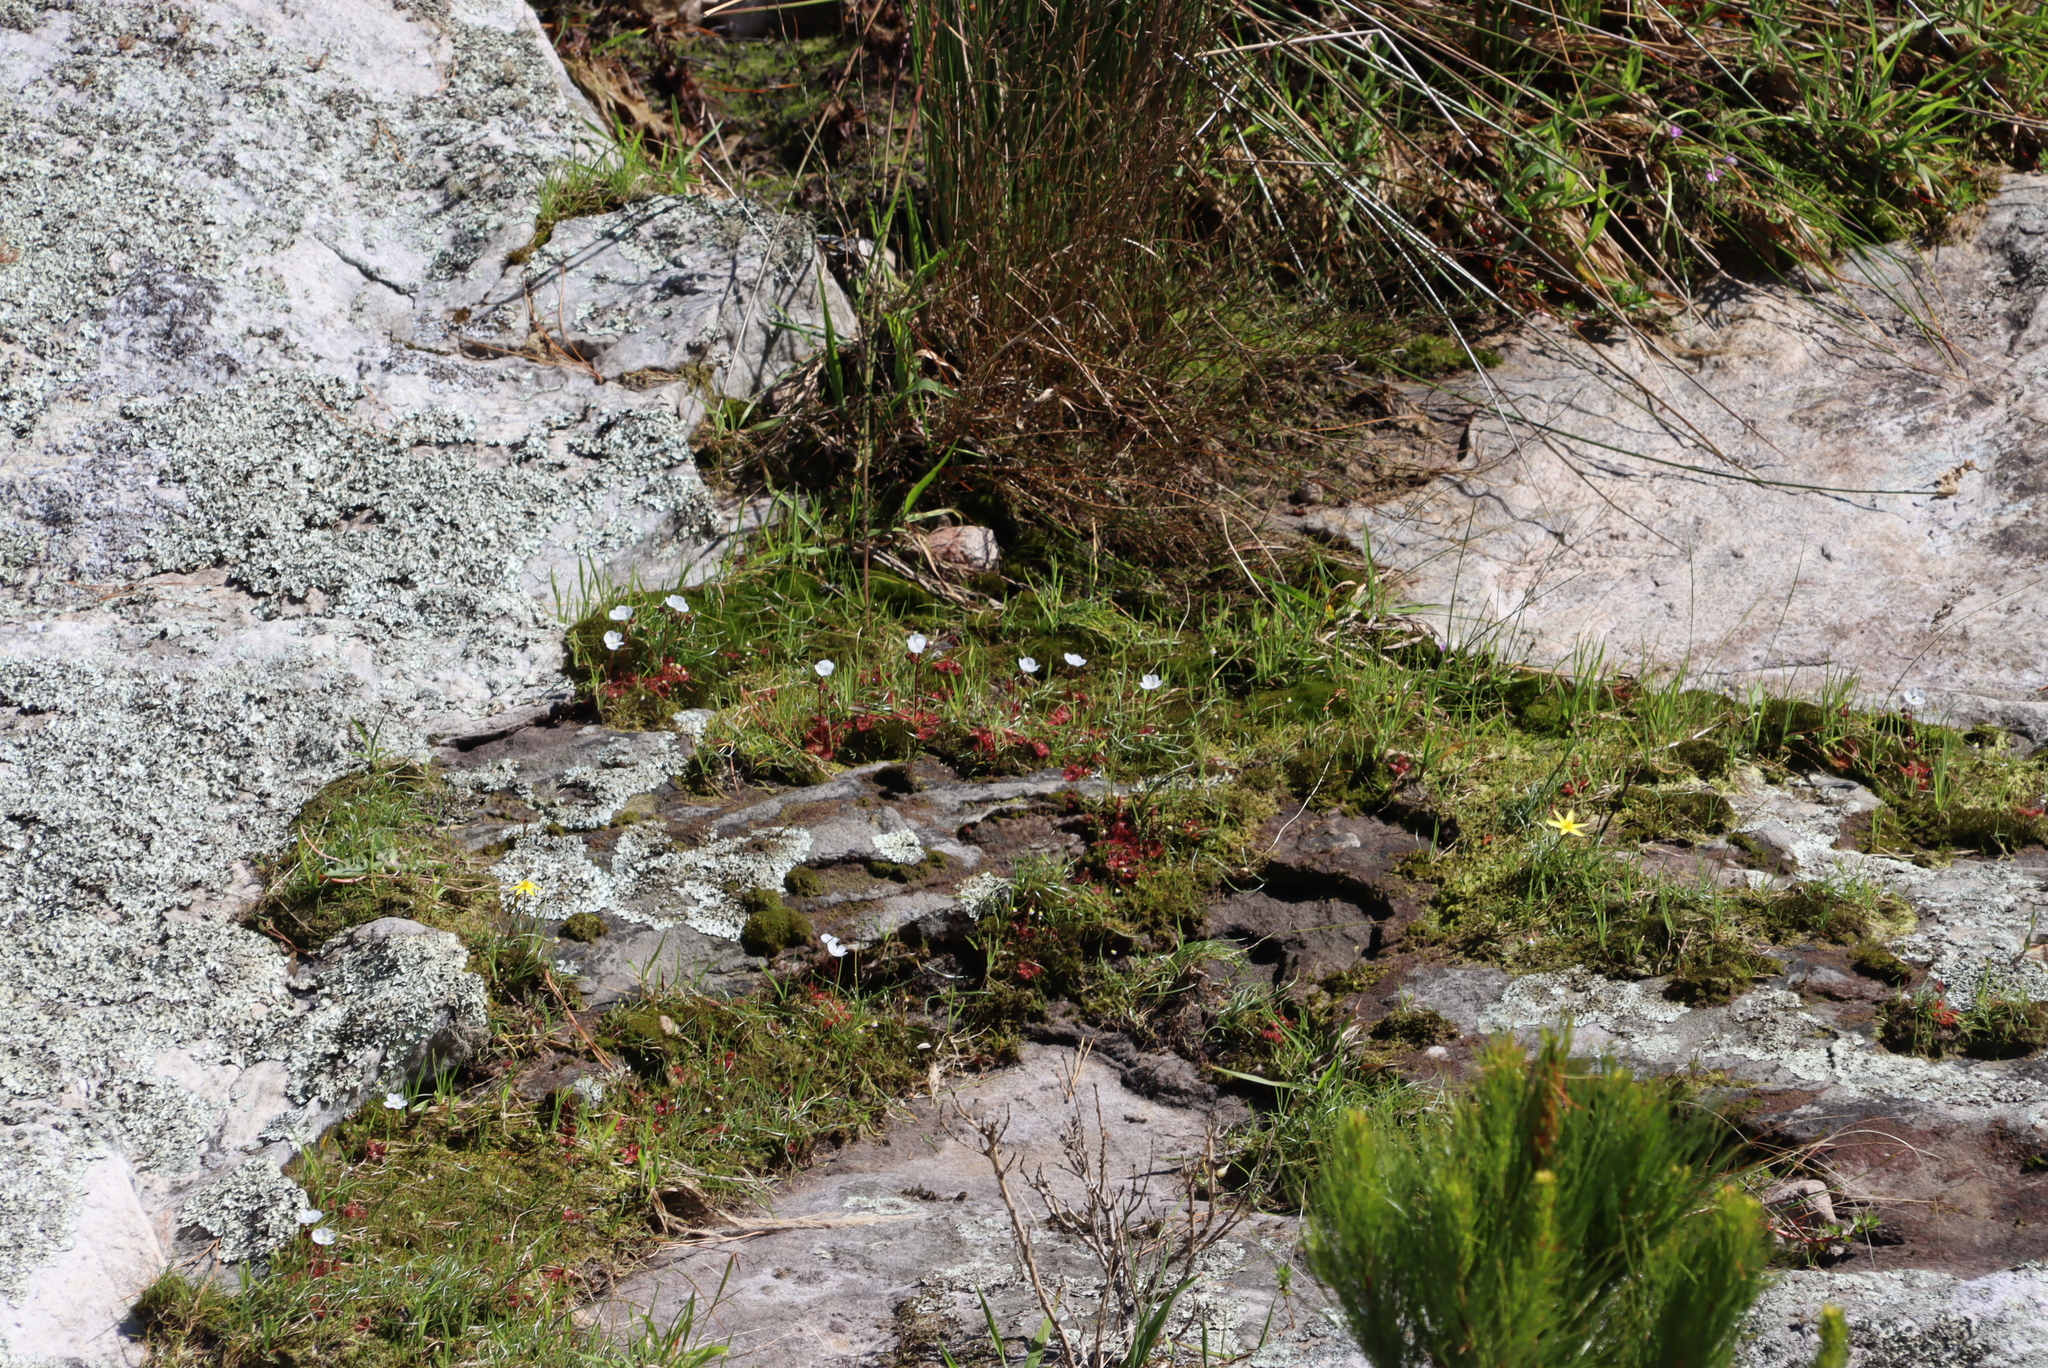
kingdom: Plantae
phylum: Tracheophyta
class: Magnoliopsida
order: Caryophyllales
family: Droseraceae
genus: Drosera
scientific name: Drosera trinervia
